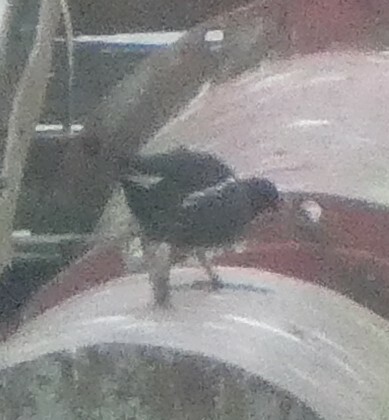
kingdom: Animalia
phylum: Chordata
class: Aves
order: Gruiformes
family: Rallidae
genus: Gallinula
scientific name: Gallinula chloropus
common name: Common moorhen
